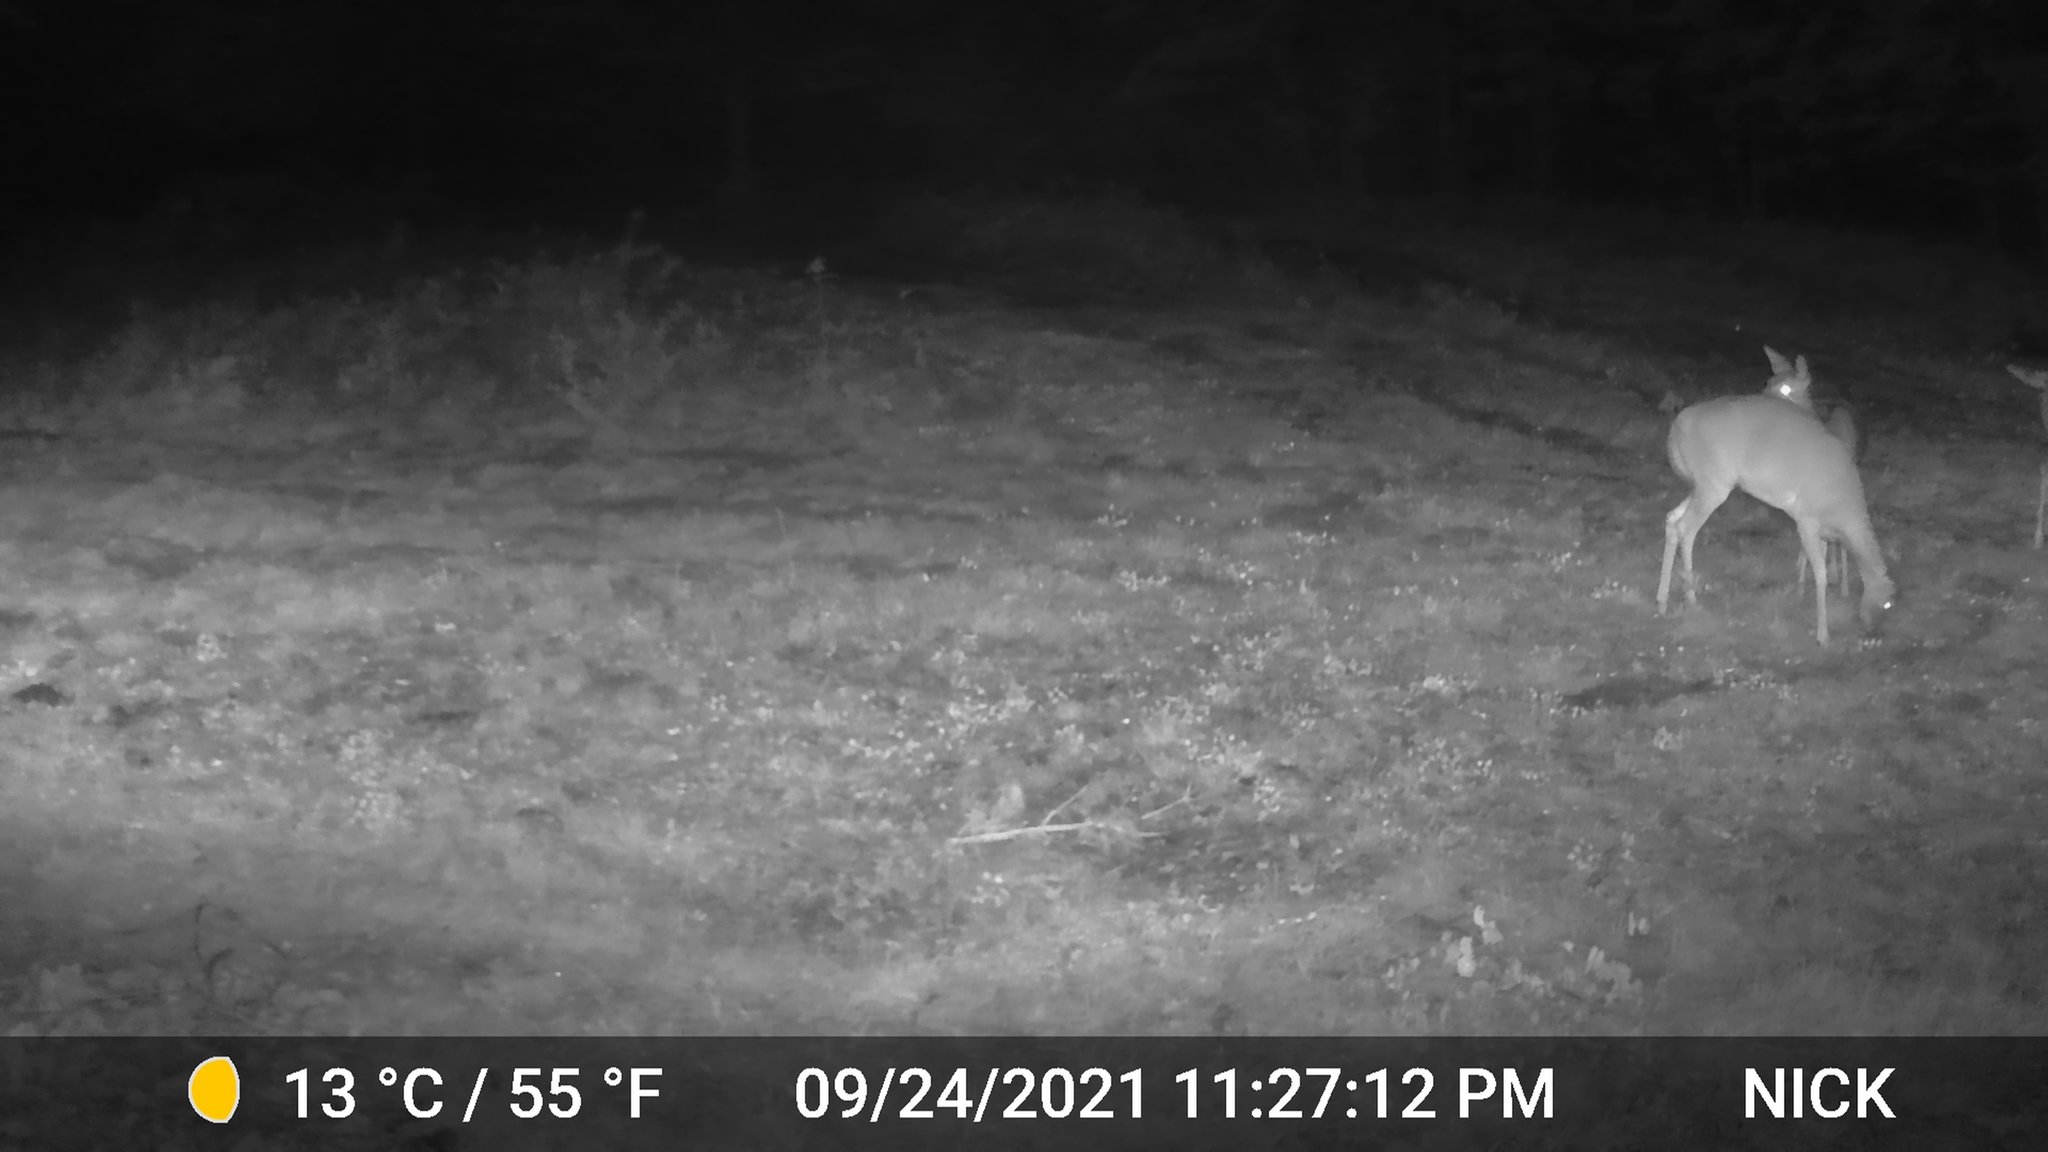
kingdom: Animalia
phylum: Chordata
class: Mammalia
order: Artiodactyla
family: Cervidae
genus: Odocoileus
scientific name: Odocoileus virginianus
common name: White-tailed deer
